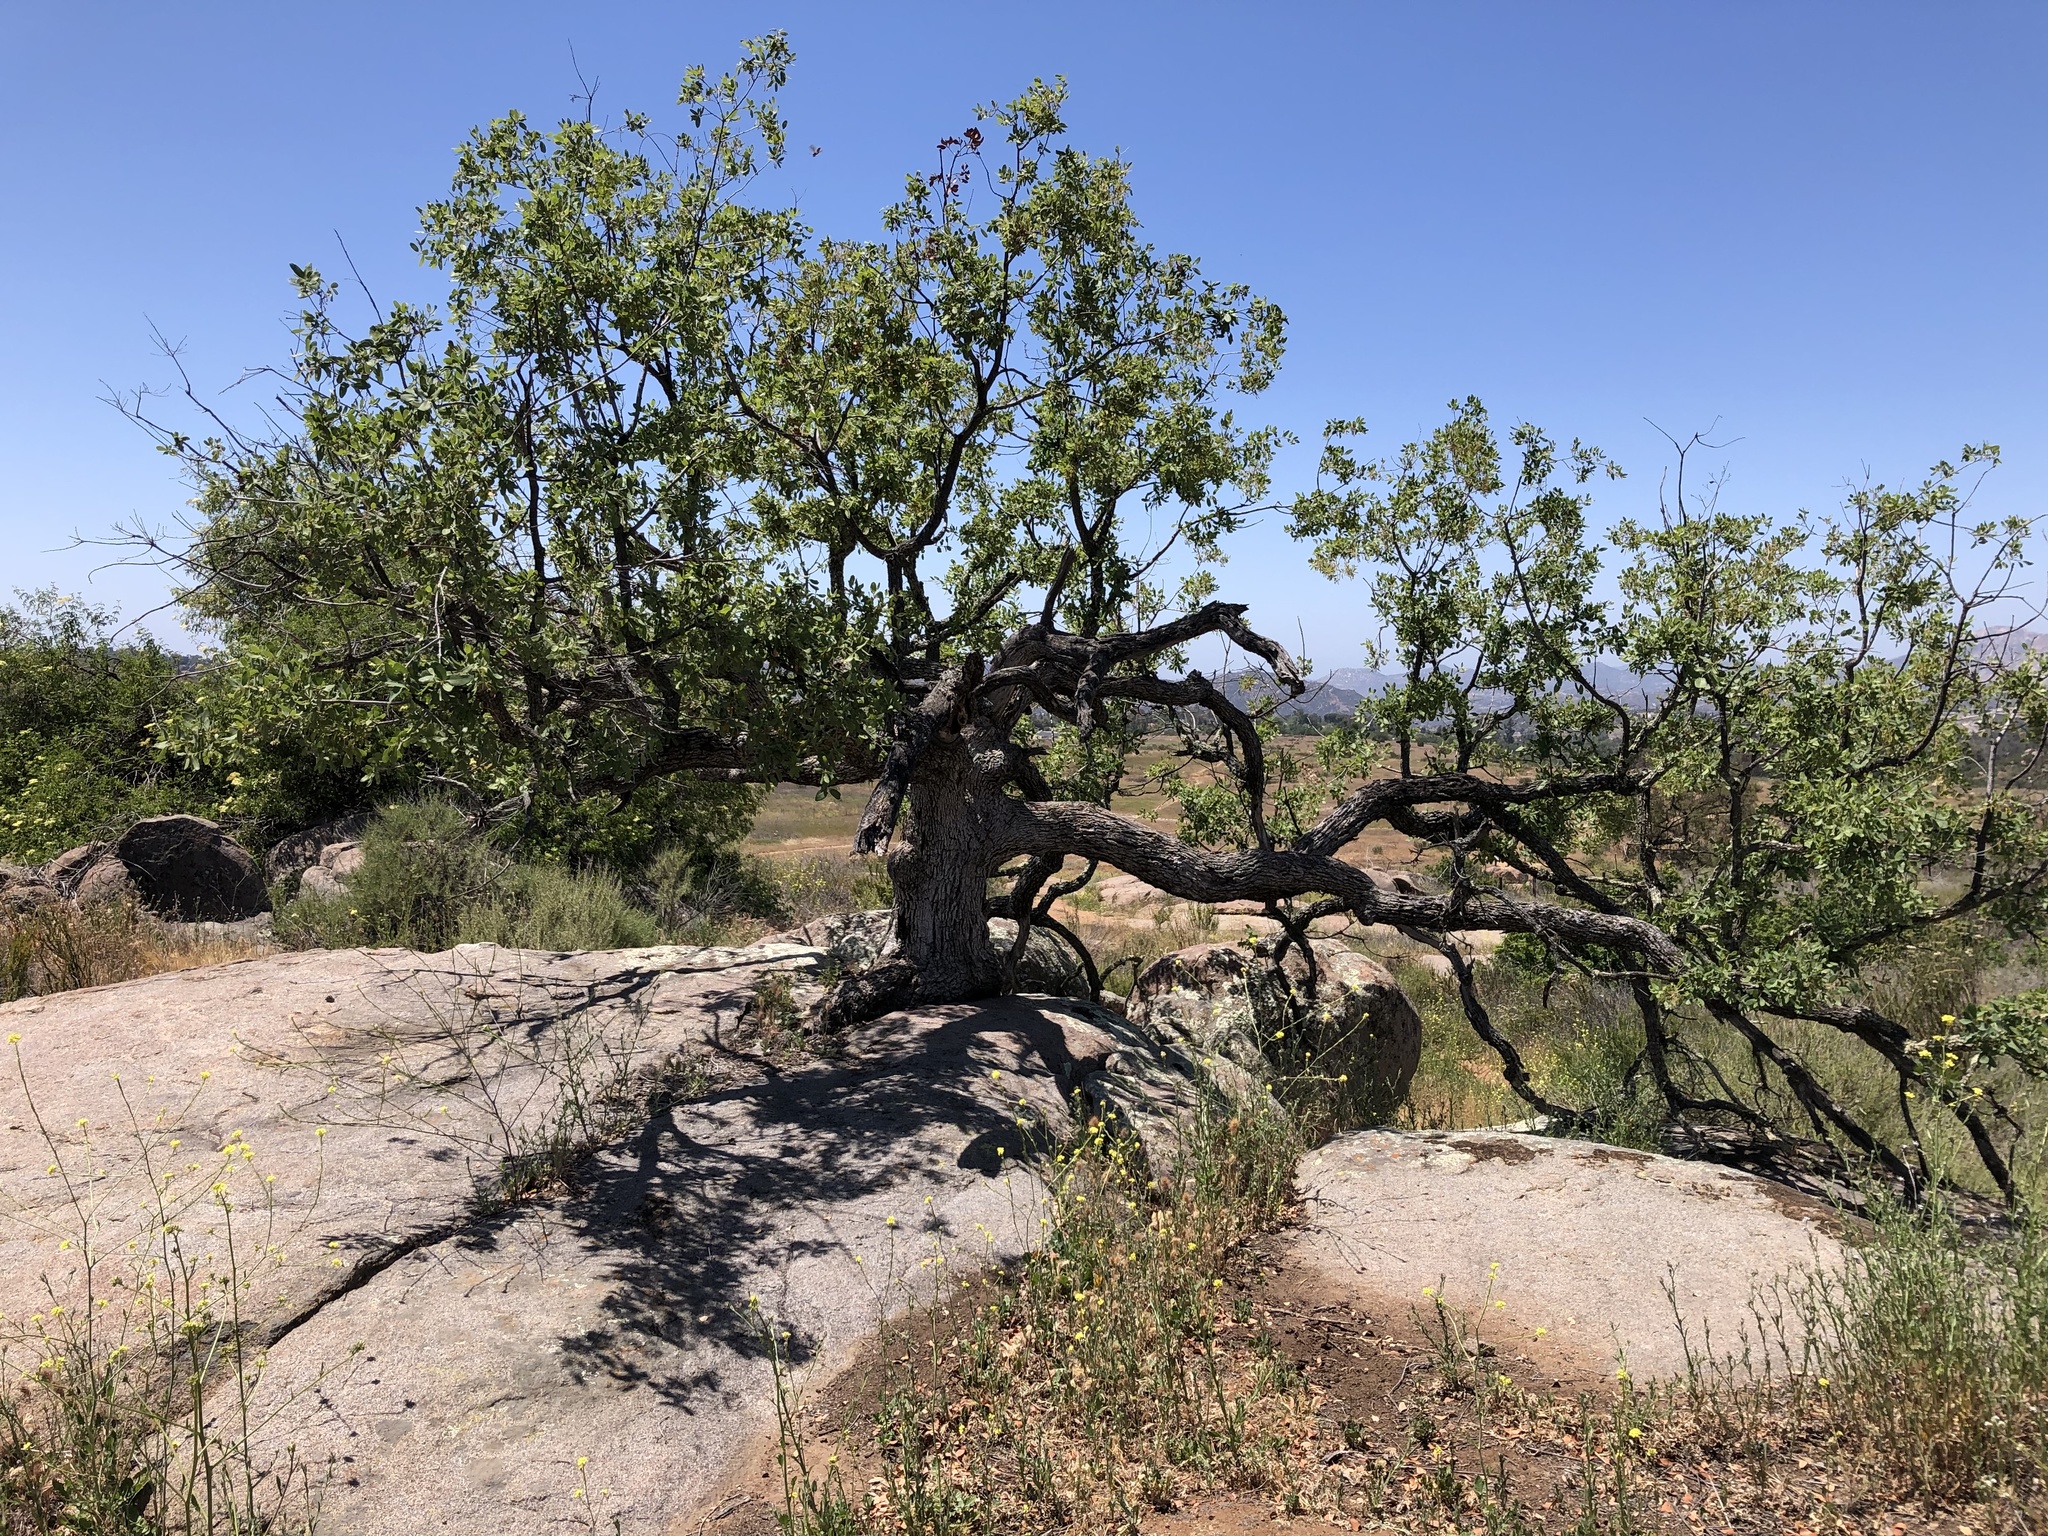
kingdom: Plantae
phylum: Tracheophyta
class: Magnoliopsida
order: Fagales
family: Fagaceae
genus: Quercus
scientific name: Quercus engelmannii
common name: Engelmann oak
